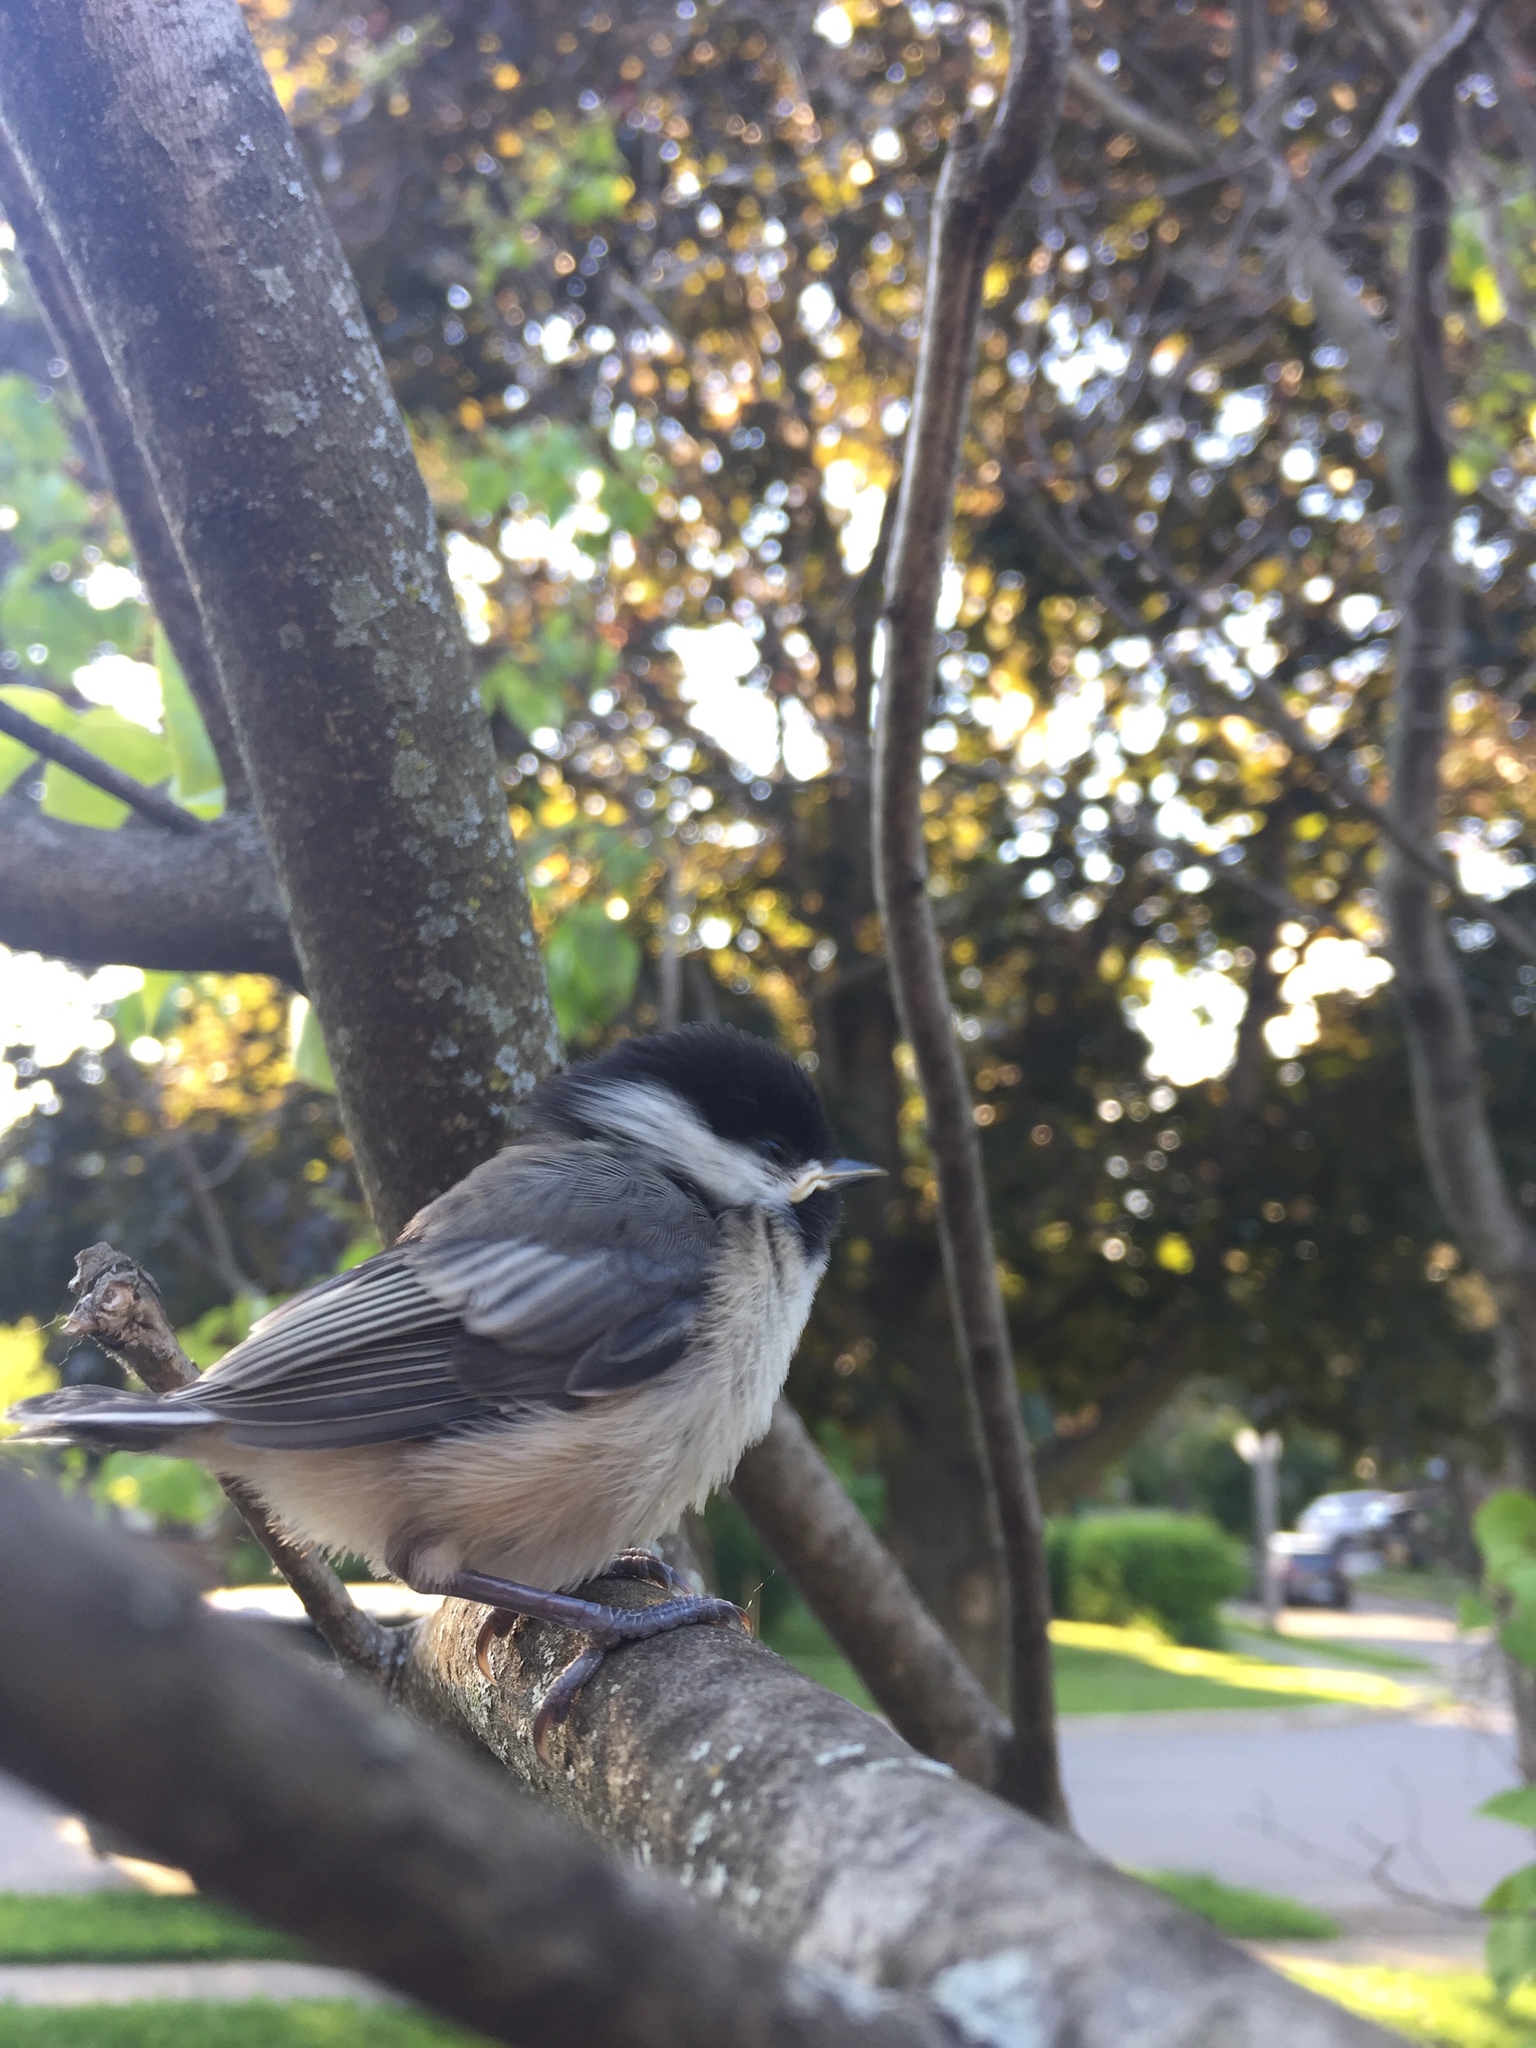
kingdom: Animalia
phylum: Chordata
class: Aves
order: Passeriformes
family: Paridae
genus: Poecile
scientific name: Poecile atricapillus
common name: Black-capped chickadee
